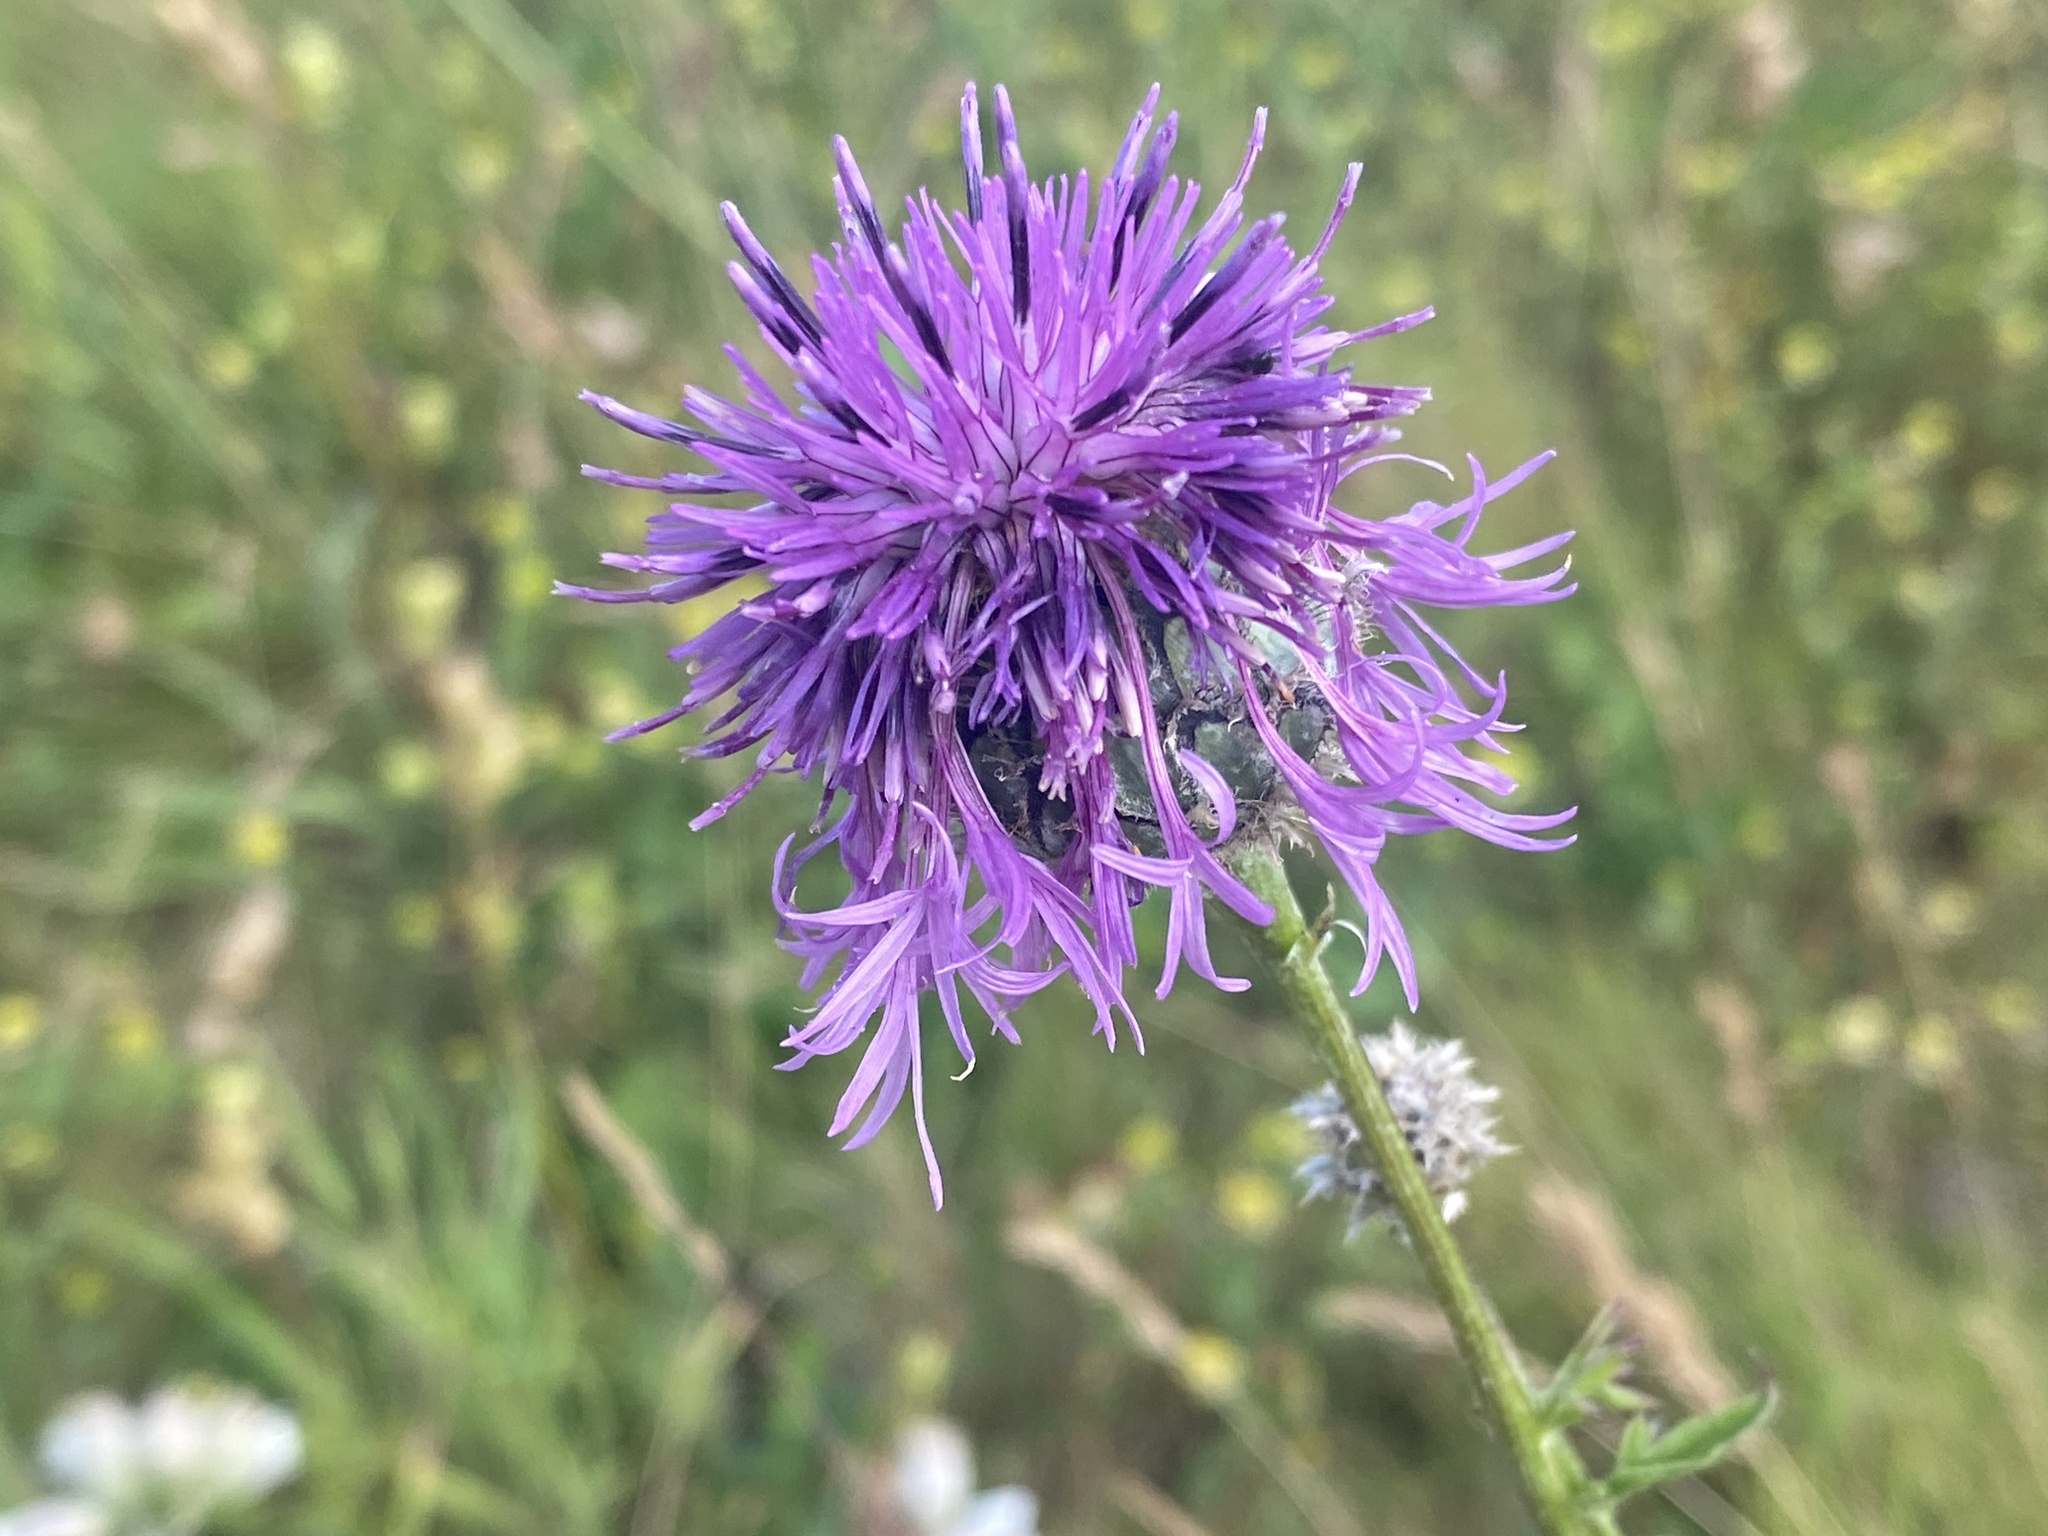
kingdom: Plantae
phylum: Tracheophyta
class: Magnoliopsida
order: Asterales
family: Asteraceae
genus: Centaurea
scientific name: Centaurea scabiosa
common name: Greater knapweed
